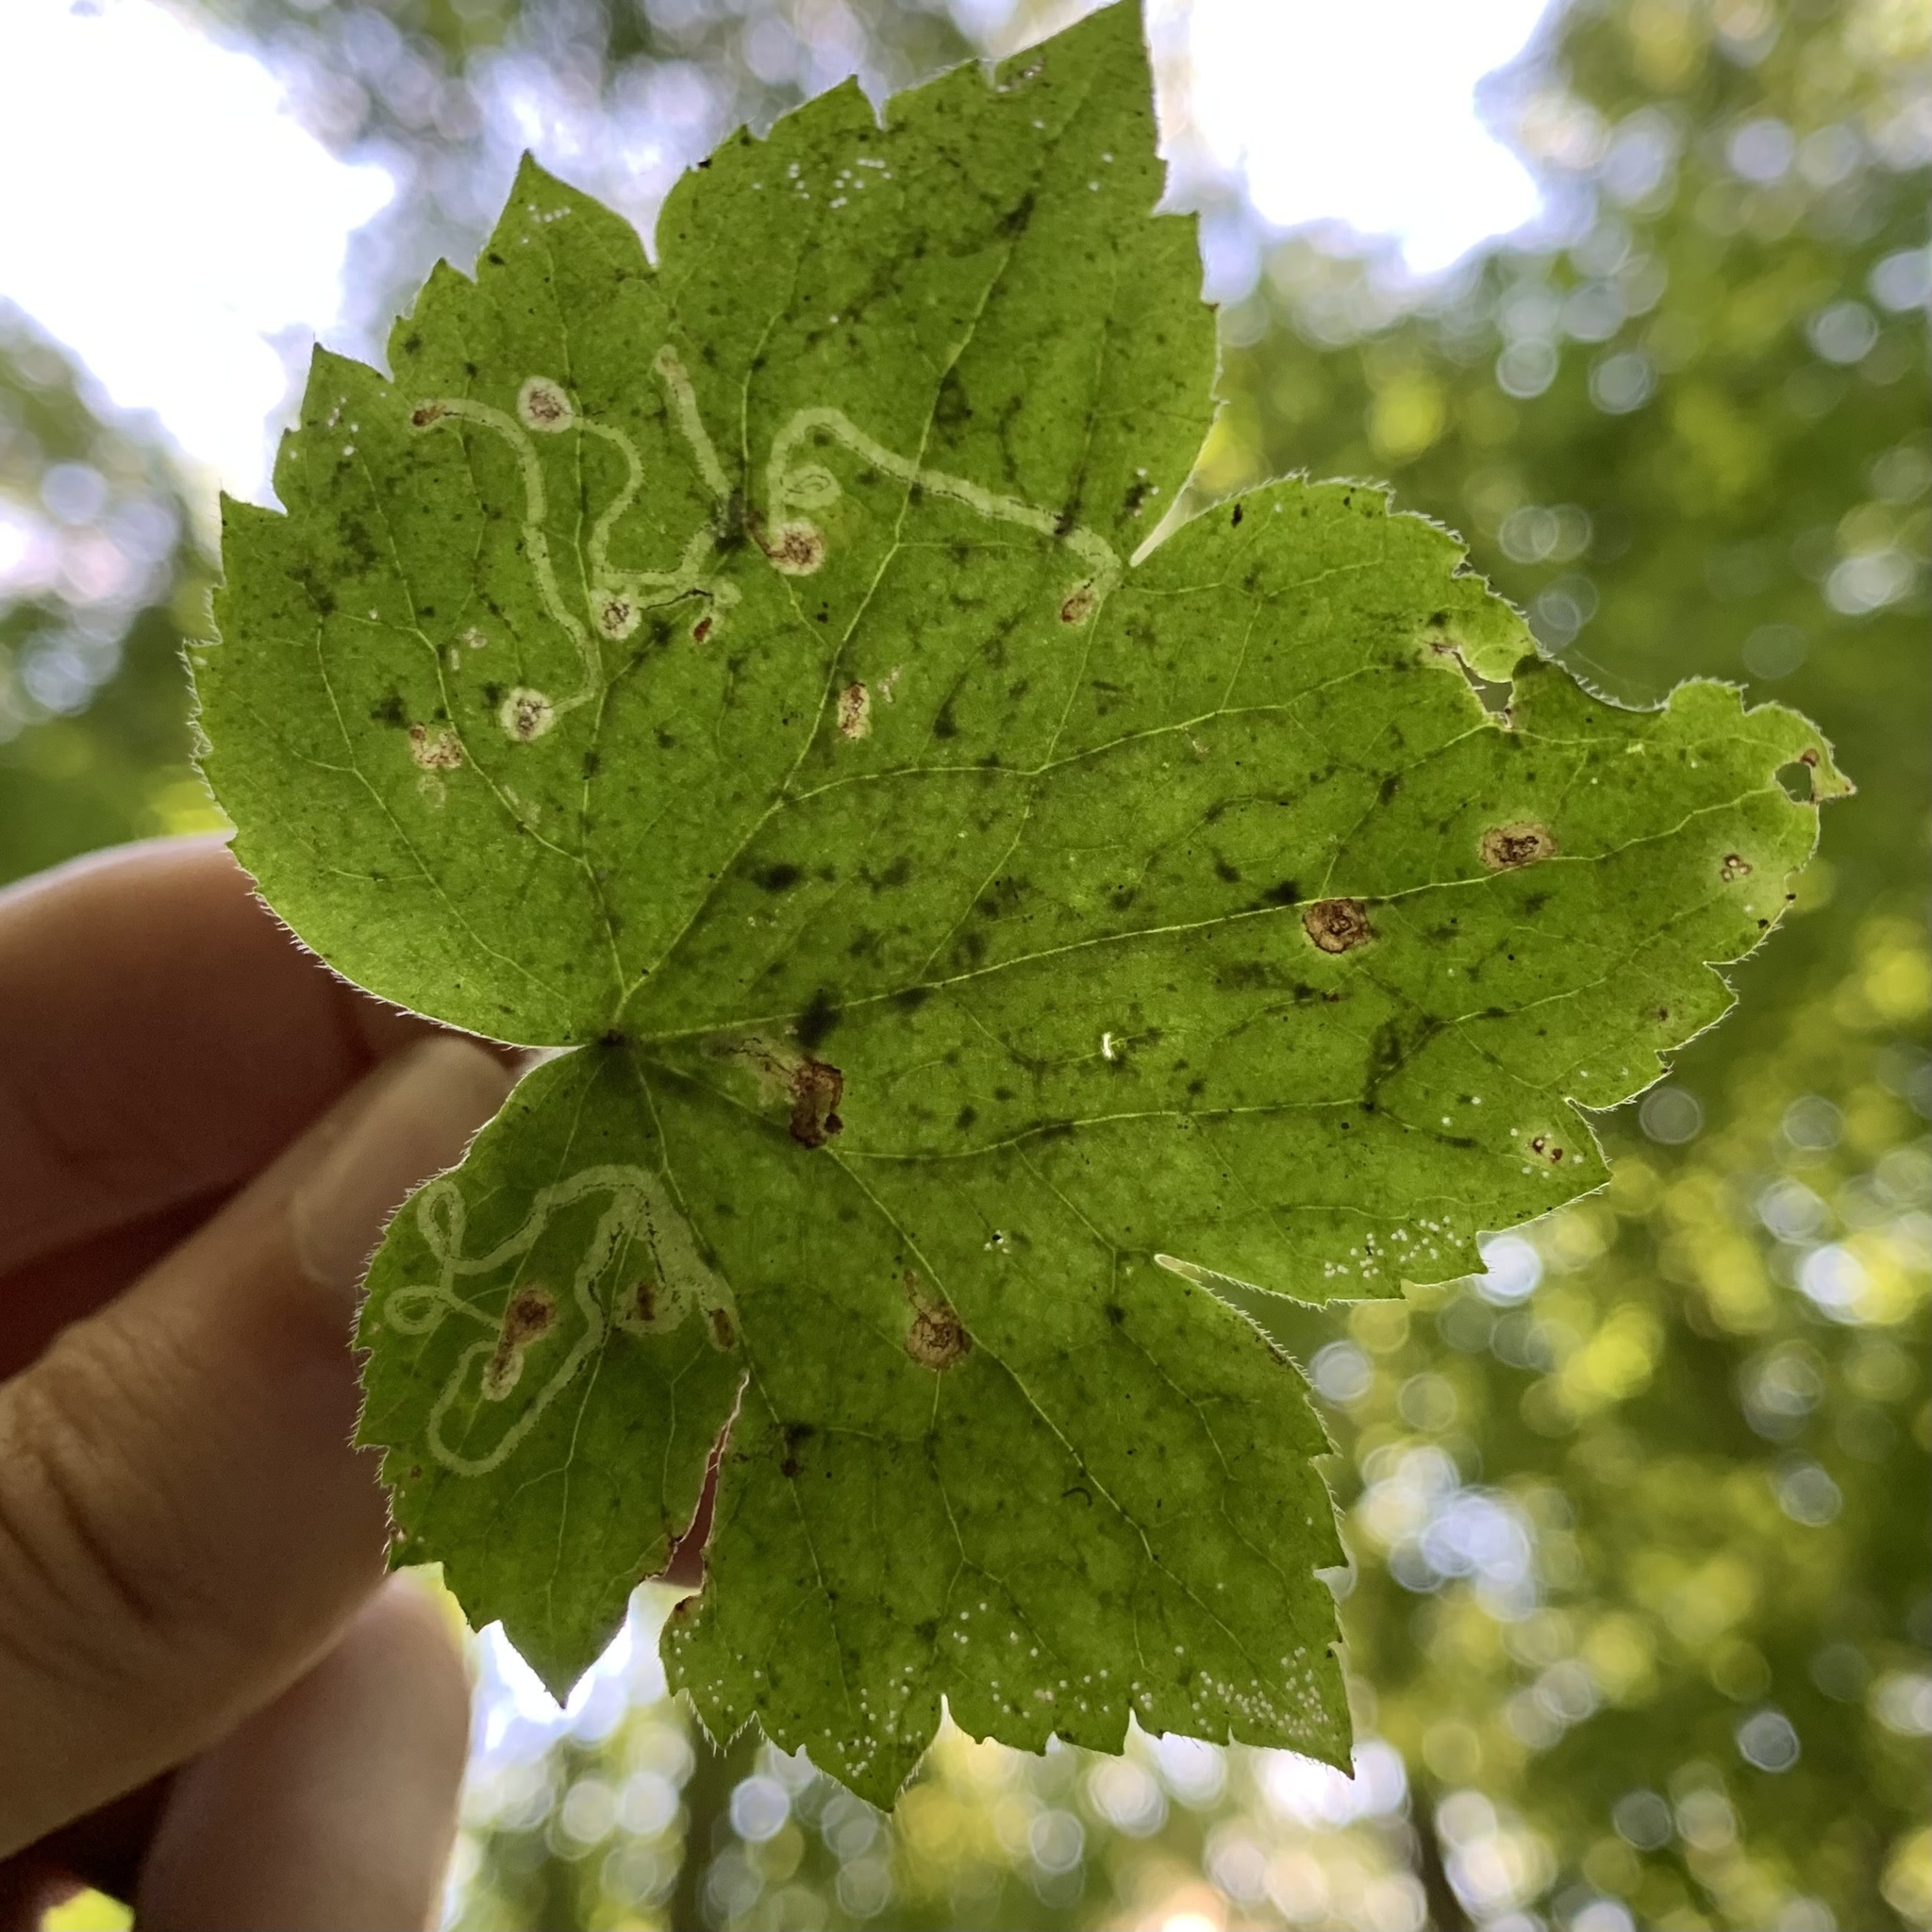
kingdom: Animalia
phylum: Arthropoda
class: Insecta
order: Diptera
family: Agromyzidae
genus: Phytomyza
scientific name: Phytomyza loewii
